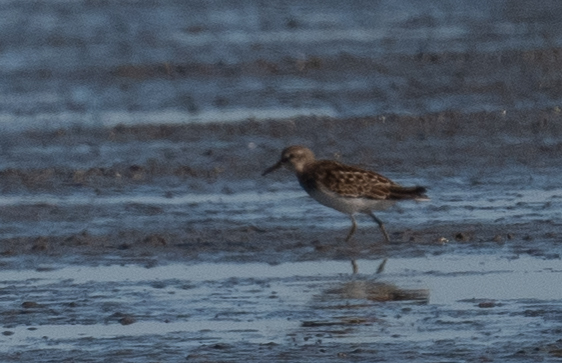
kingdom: Animalia
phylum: Chordata
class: Aves
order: Charadriiformes
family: Scolopacidae
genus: Calidris
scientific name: Calidris minutilla
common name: Least sandpiper
